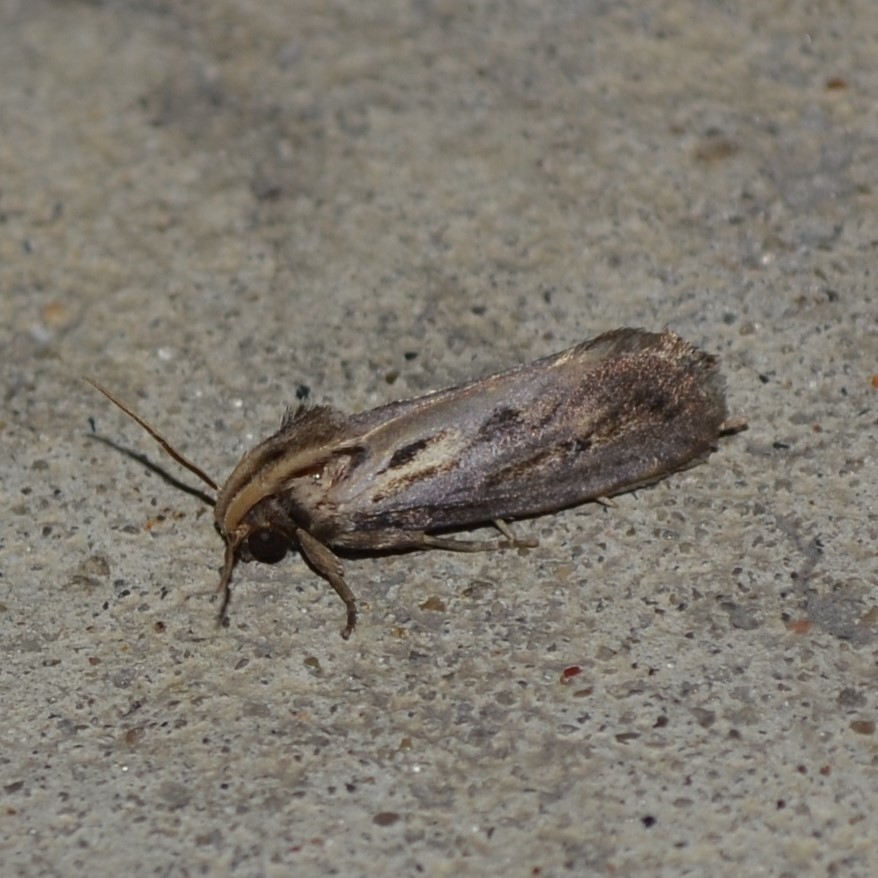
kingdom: Animalia
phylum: Arthropoda
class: Insecta
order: Lepidoptera
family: Tineidae
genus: Acrolophus
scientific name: Acrolophus popeanella
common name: Clemens' grass tubeworm moth
